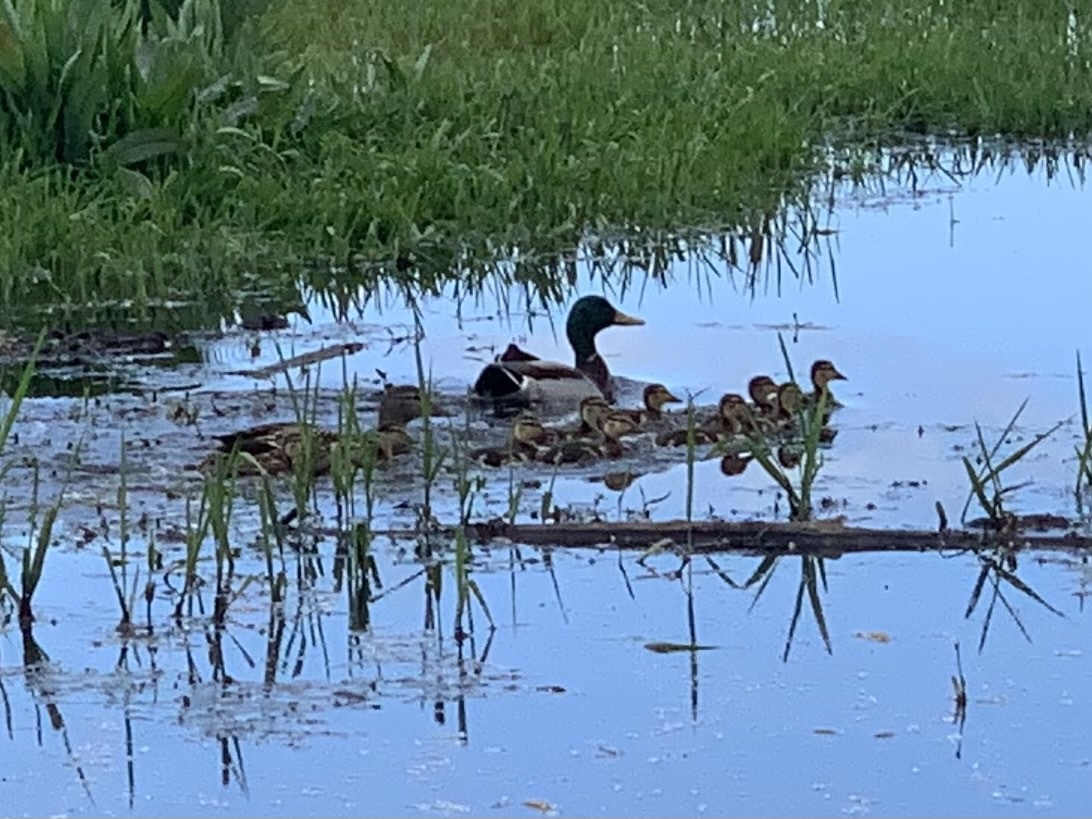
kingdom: Animalia
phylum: Chordata
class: Aves
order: Anseriformes
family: Anatidae
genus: Anas
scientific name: Anas platyrhynchos
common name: Mallard
